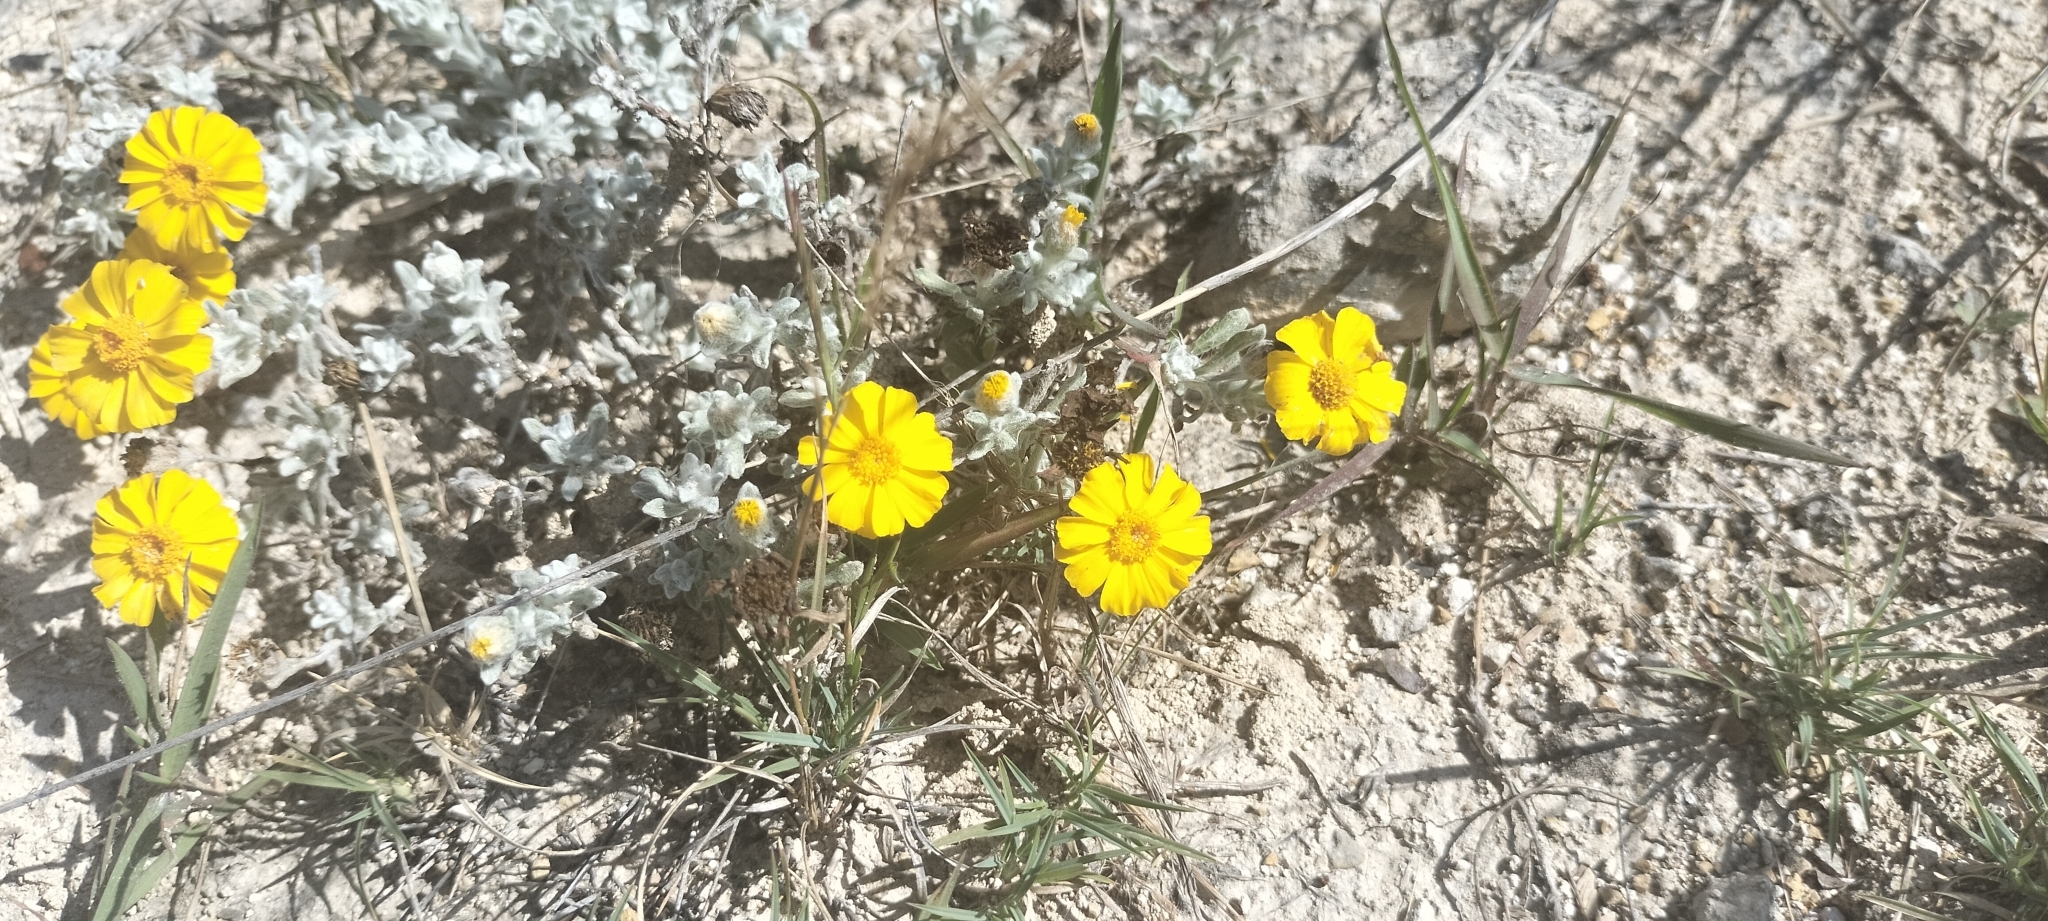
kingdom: Plantae
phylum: Tracheophyta
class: Magnoliopsida
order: Asterales
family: Asteraceae
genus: Thymophylla
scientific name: Thymophylla micropoides
